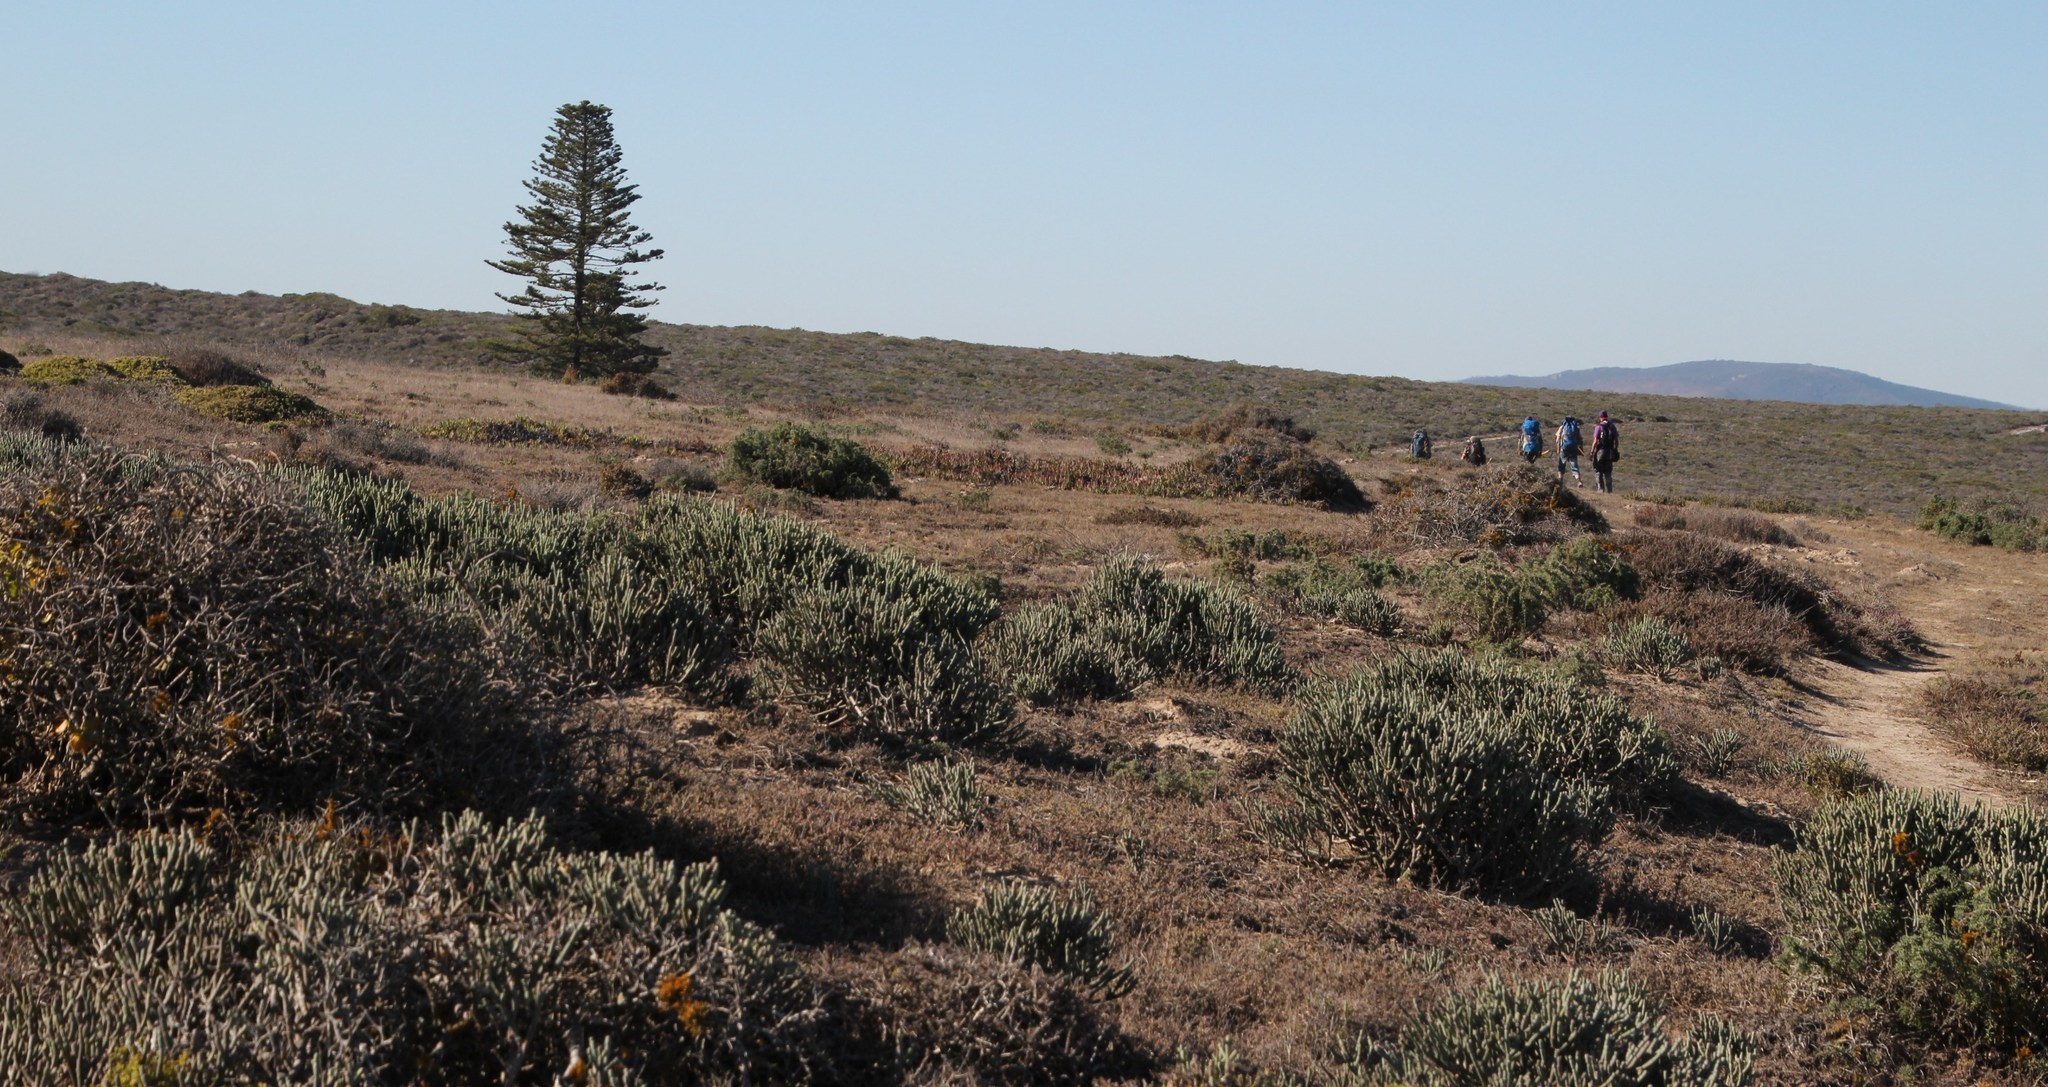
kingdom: Plantae
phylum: Tracheophyta
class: Magnoliopsida
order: Malpighiales
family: Euphorbiaceae
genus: Euphorbia
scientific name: Euphorbia burmanni
